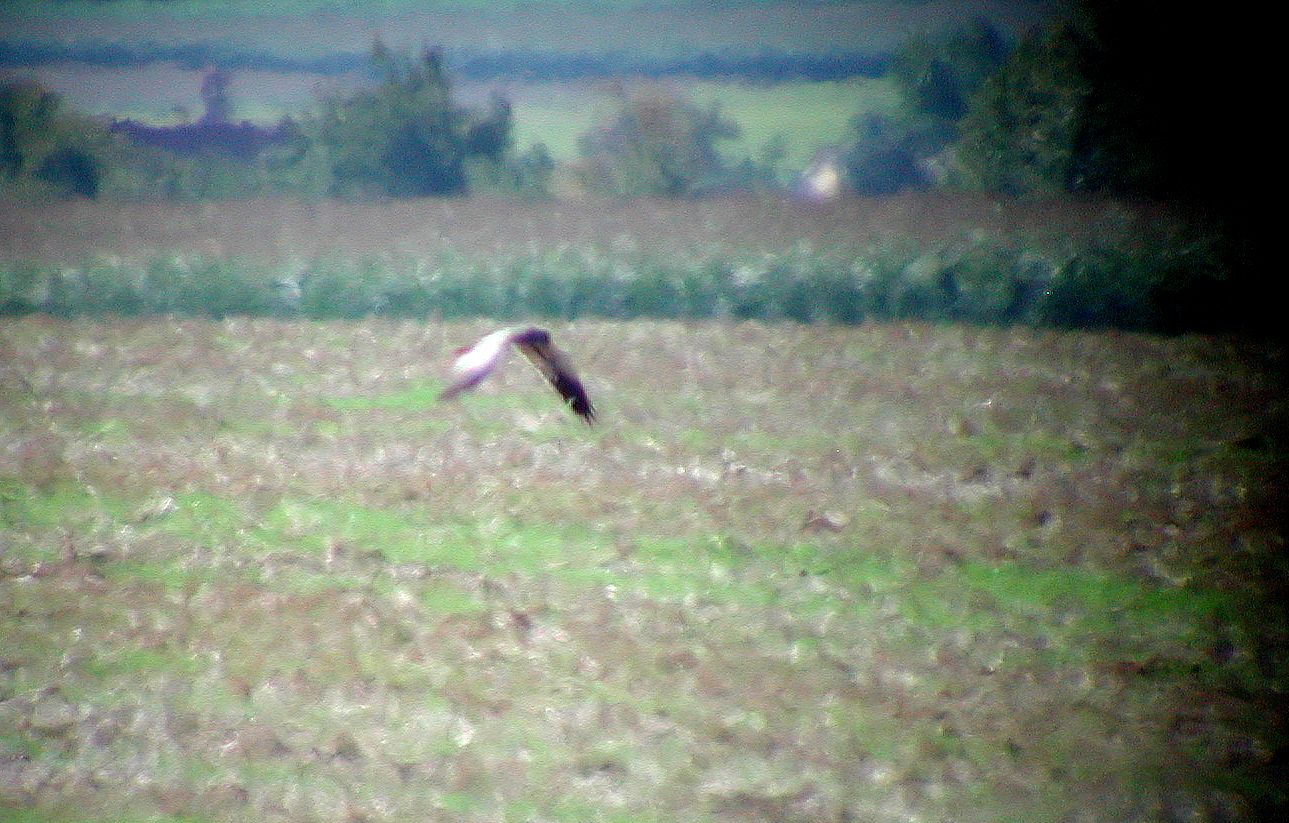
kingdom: Animalia
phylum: Chordata
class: Aves
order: Accipitriformes
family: Accipitridae
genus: Circus
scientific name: Circus pygargus
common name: Montagu's harrier
